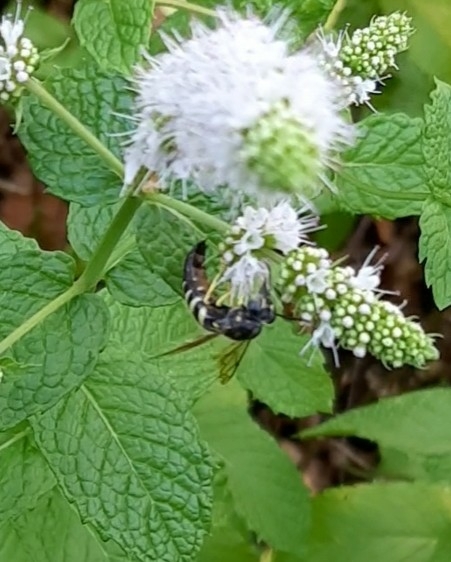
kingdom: Animalia
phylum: Arthropoda
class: Insecta
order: Hymenoptera
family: Crabronidae
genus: Bicyrtes
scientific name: Bicyrtes quadrifasciatus
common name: Four-banded stink bug hunter wasp
